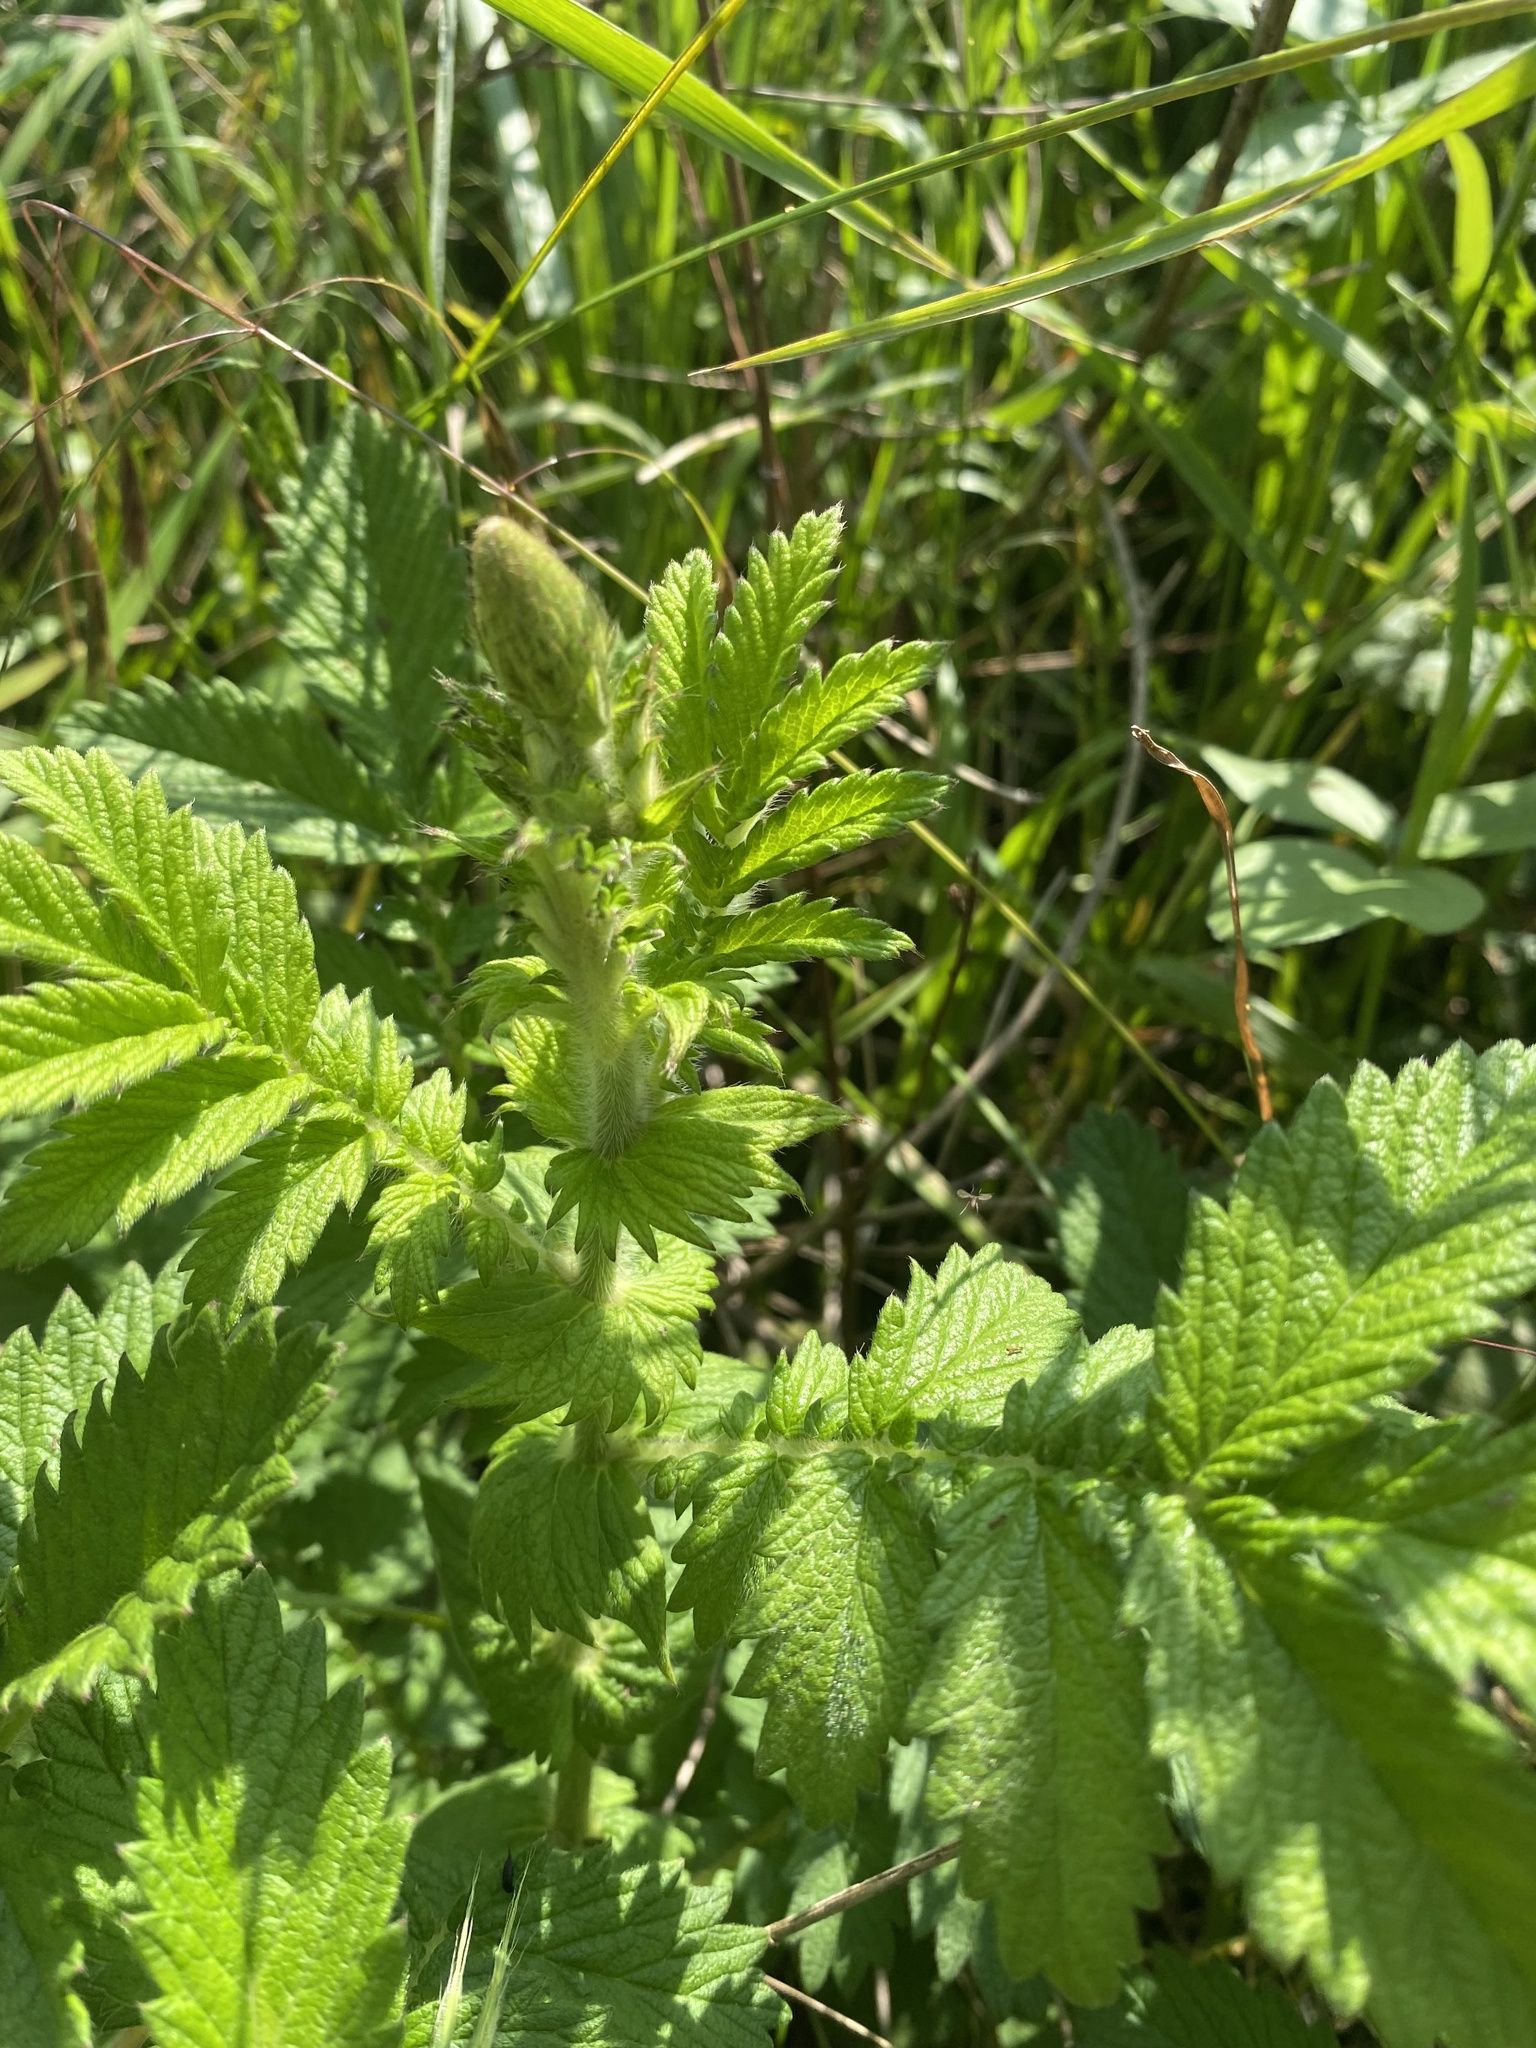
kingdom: Plantae
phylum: Tracheophyta
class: Magnoliopsida
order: Rosales
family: Rosaceae
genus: Agrimonia
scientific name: Agrimonia eupatoria
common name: Agrimony
